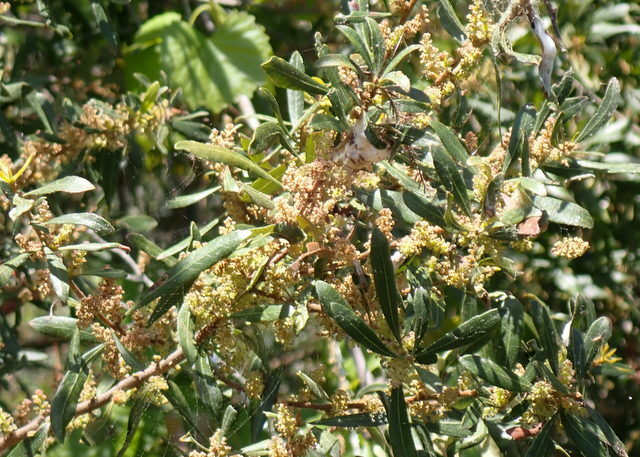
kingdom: Plantae
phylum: Tracheophyta
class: Magnoliopsida
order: Fagales
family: Myricaceae
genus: Morella
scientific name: Morella cerifera
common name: Wax myrtle
